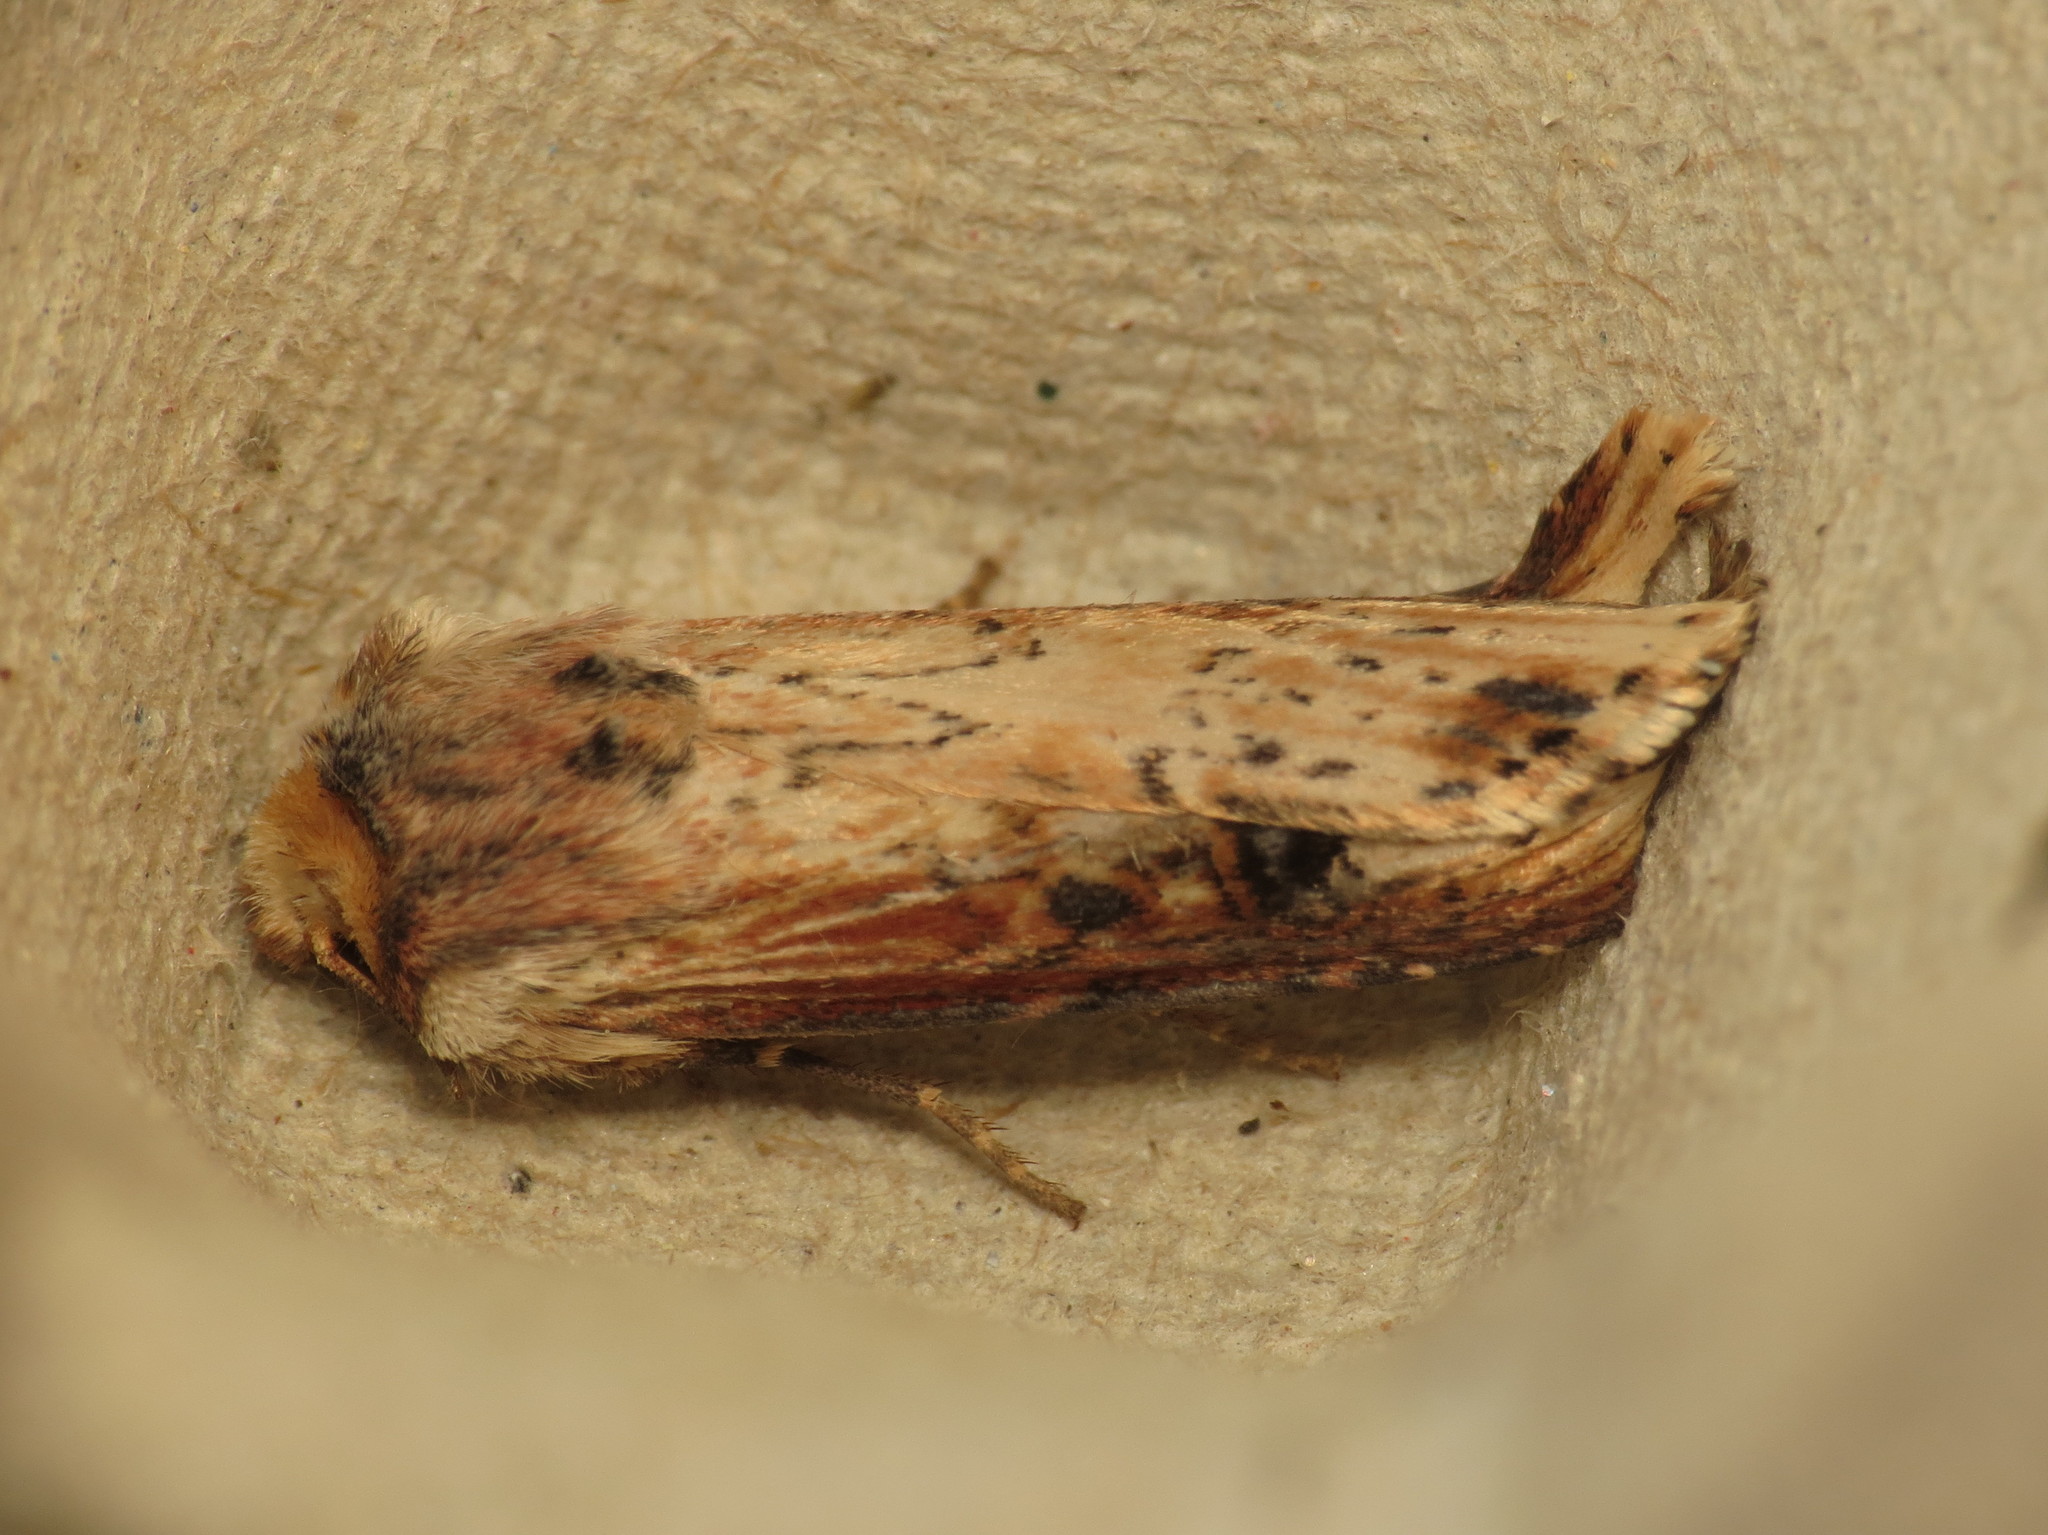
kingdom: Animalia
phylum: Arthropoda
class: Insecta
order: Lepidoptera
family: Noctuidae
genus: Axylia
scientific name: Axylia putris
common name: Flame
